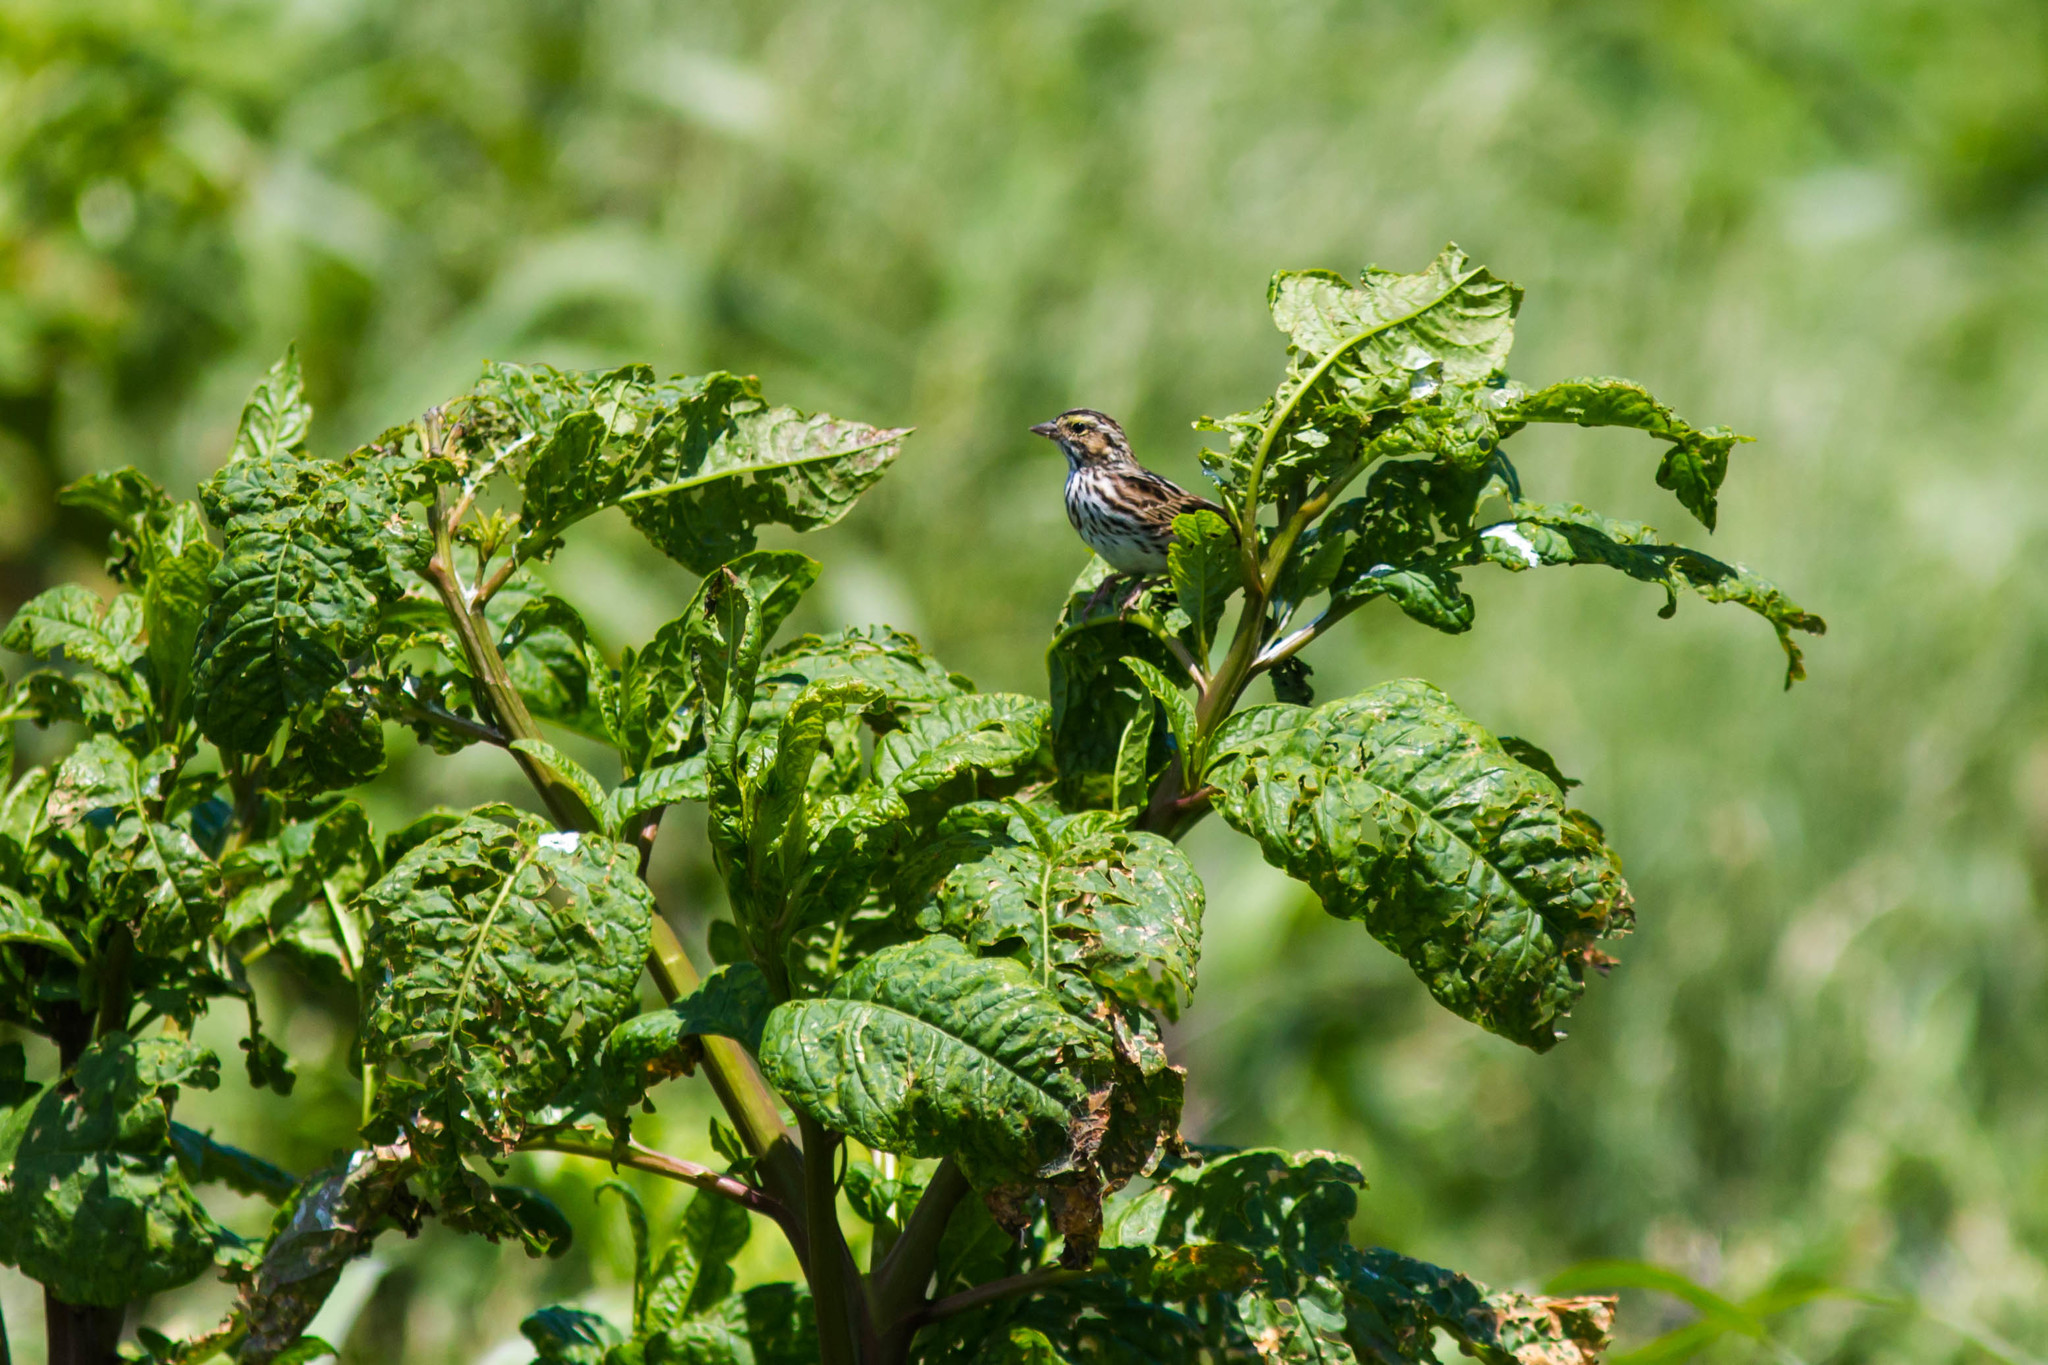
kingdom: Animalia
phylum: Chordata
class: Aves
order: Passeriformes
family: Passerellidae
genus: Passerculus
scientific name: Passerculus sandwichensis
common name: Savannah sparrow
